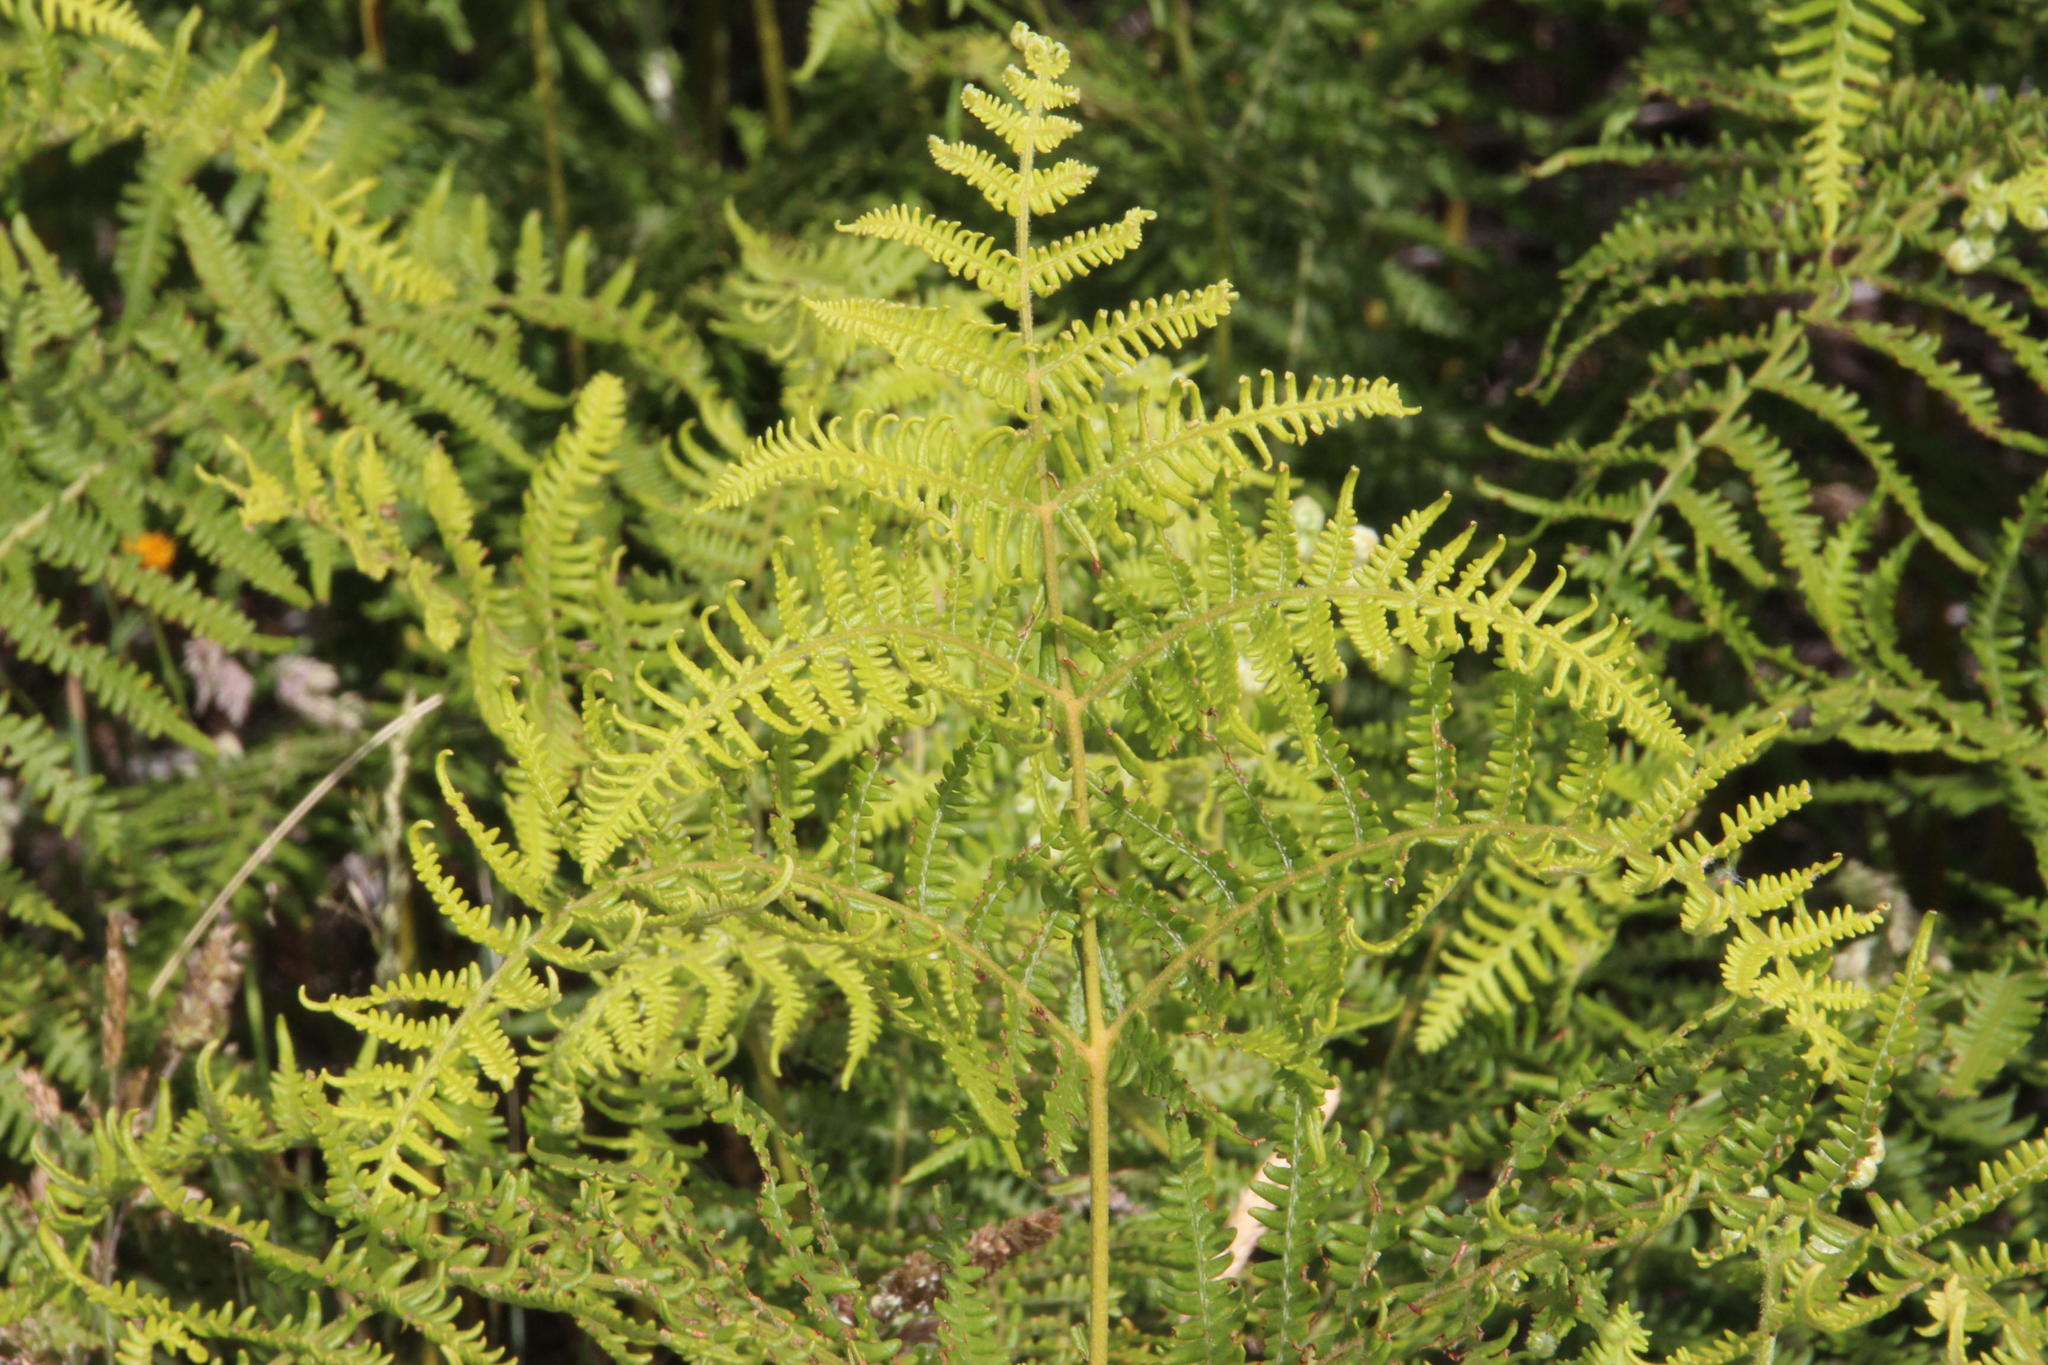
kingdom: Plantae
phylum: Tracheophyta
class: Polypodiopsida
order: Polypodiales
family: Dennstaedtiaceae
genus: Pteridium
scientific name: Pteridium aquilinum
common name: Bracken
